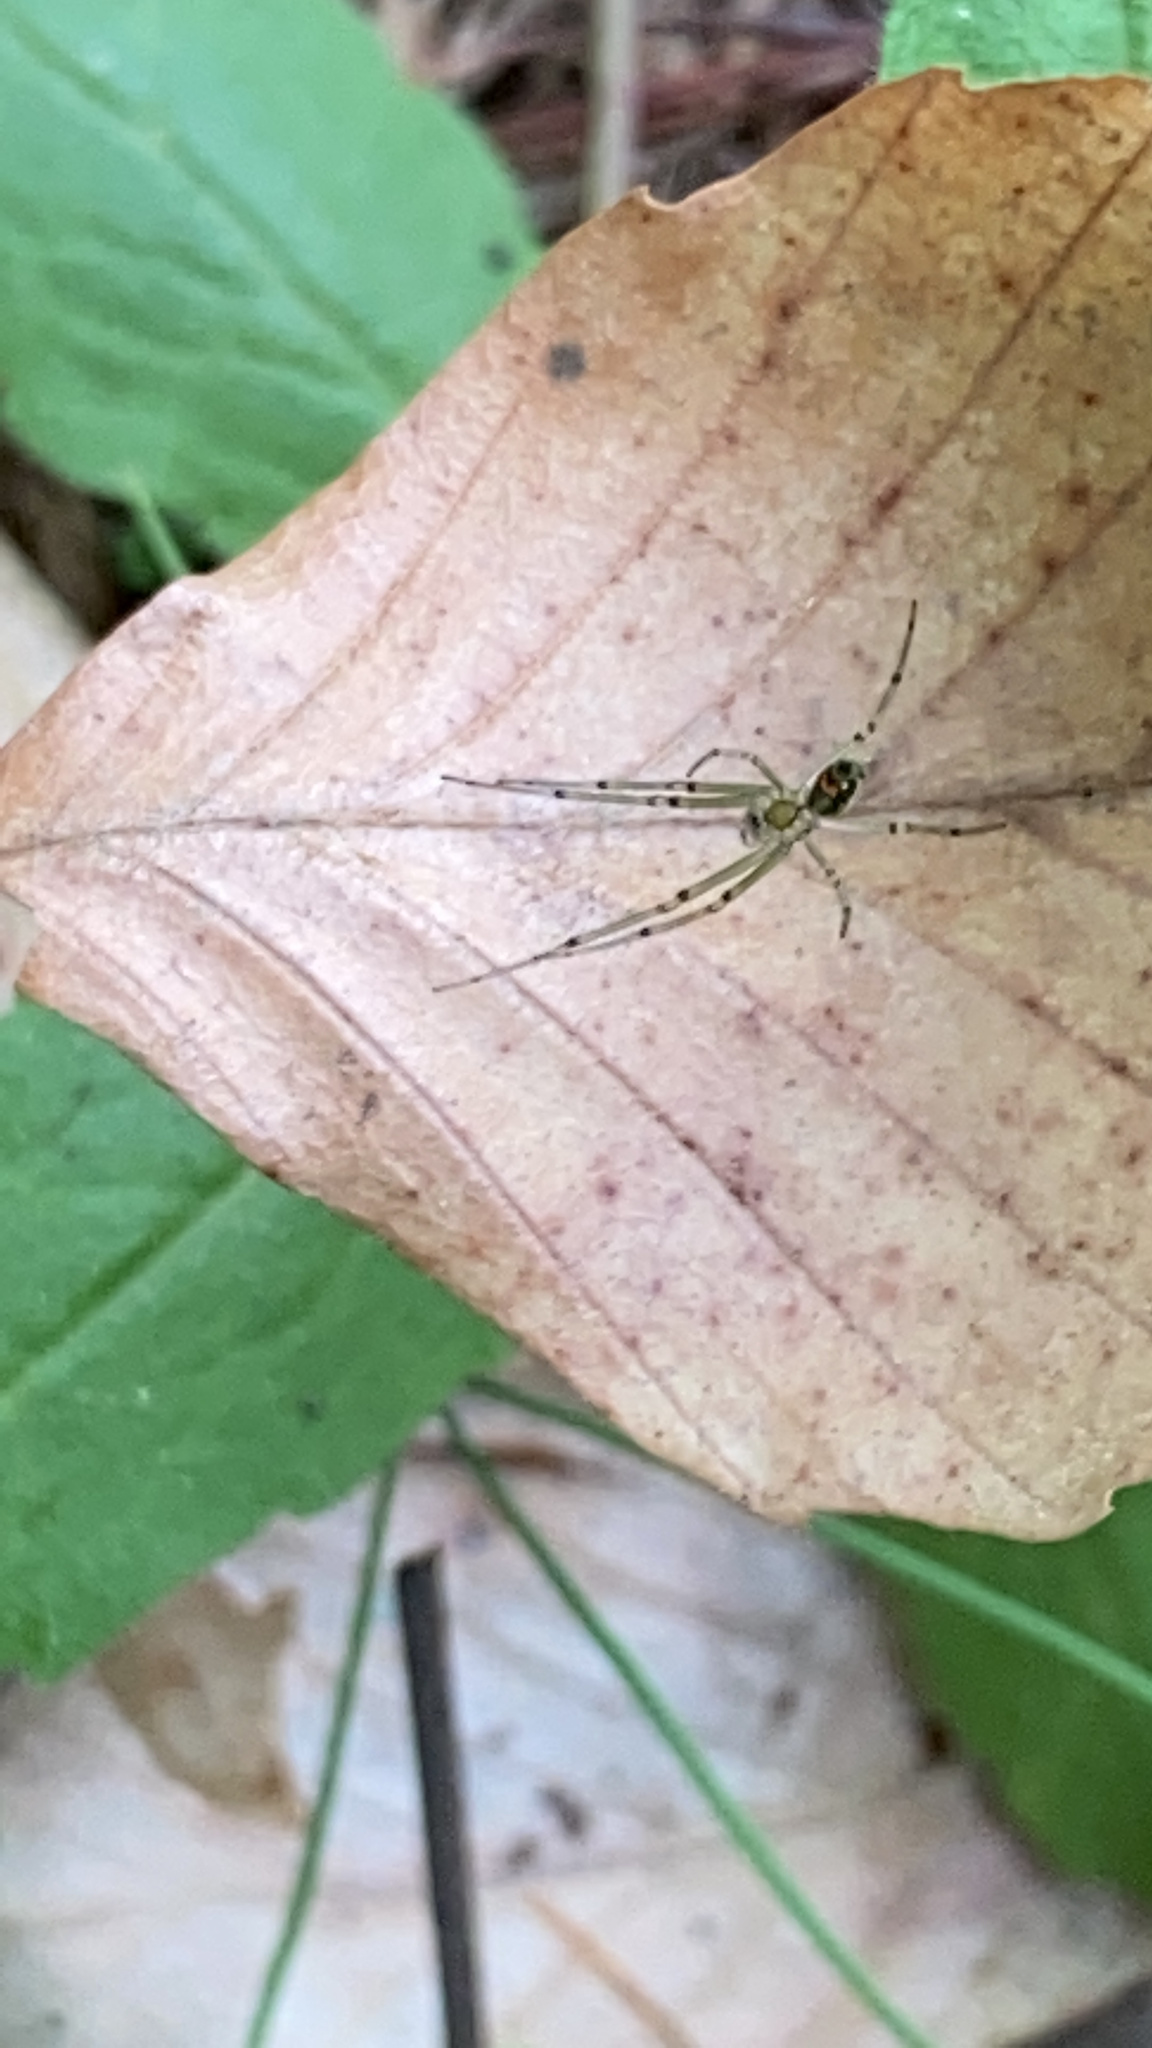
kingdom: Animalia
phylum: Arthropoda
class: Arachnida
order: Araneae
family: Tetragnathidae
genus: Leucauge
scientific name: Leucauge venusta
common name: Longjawed orb weavers
